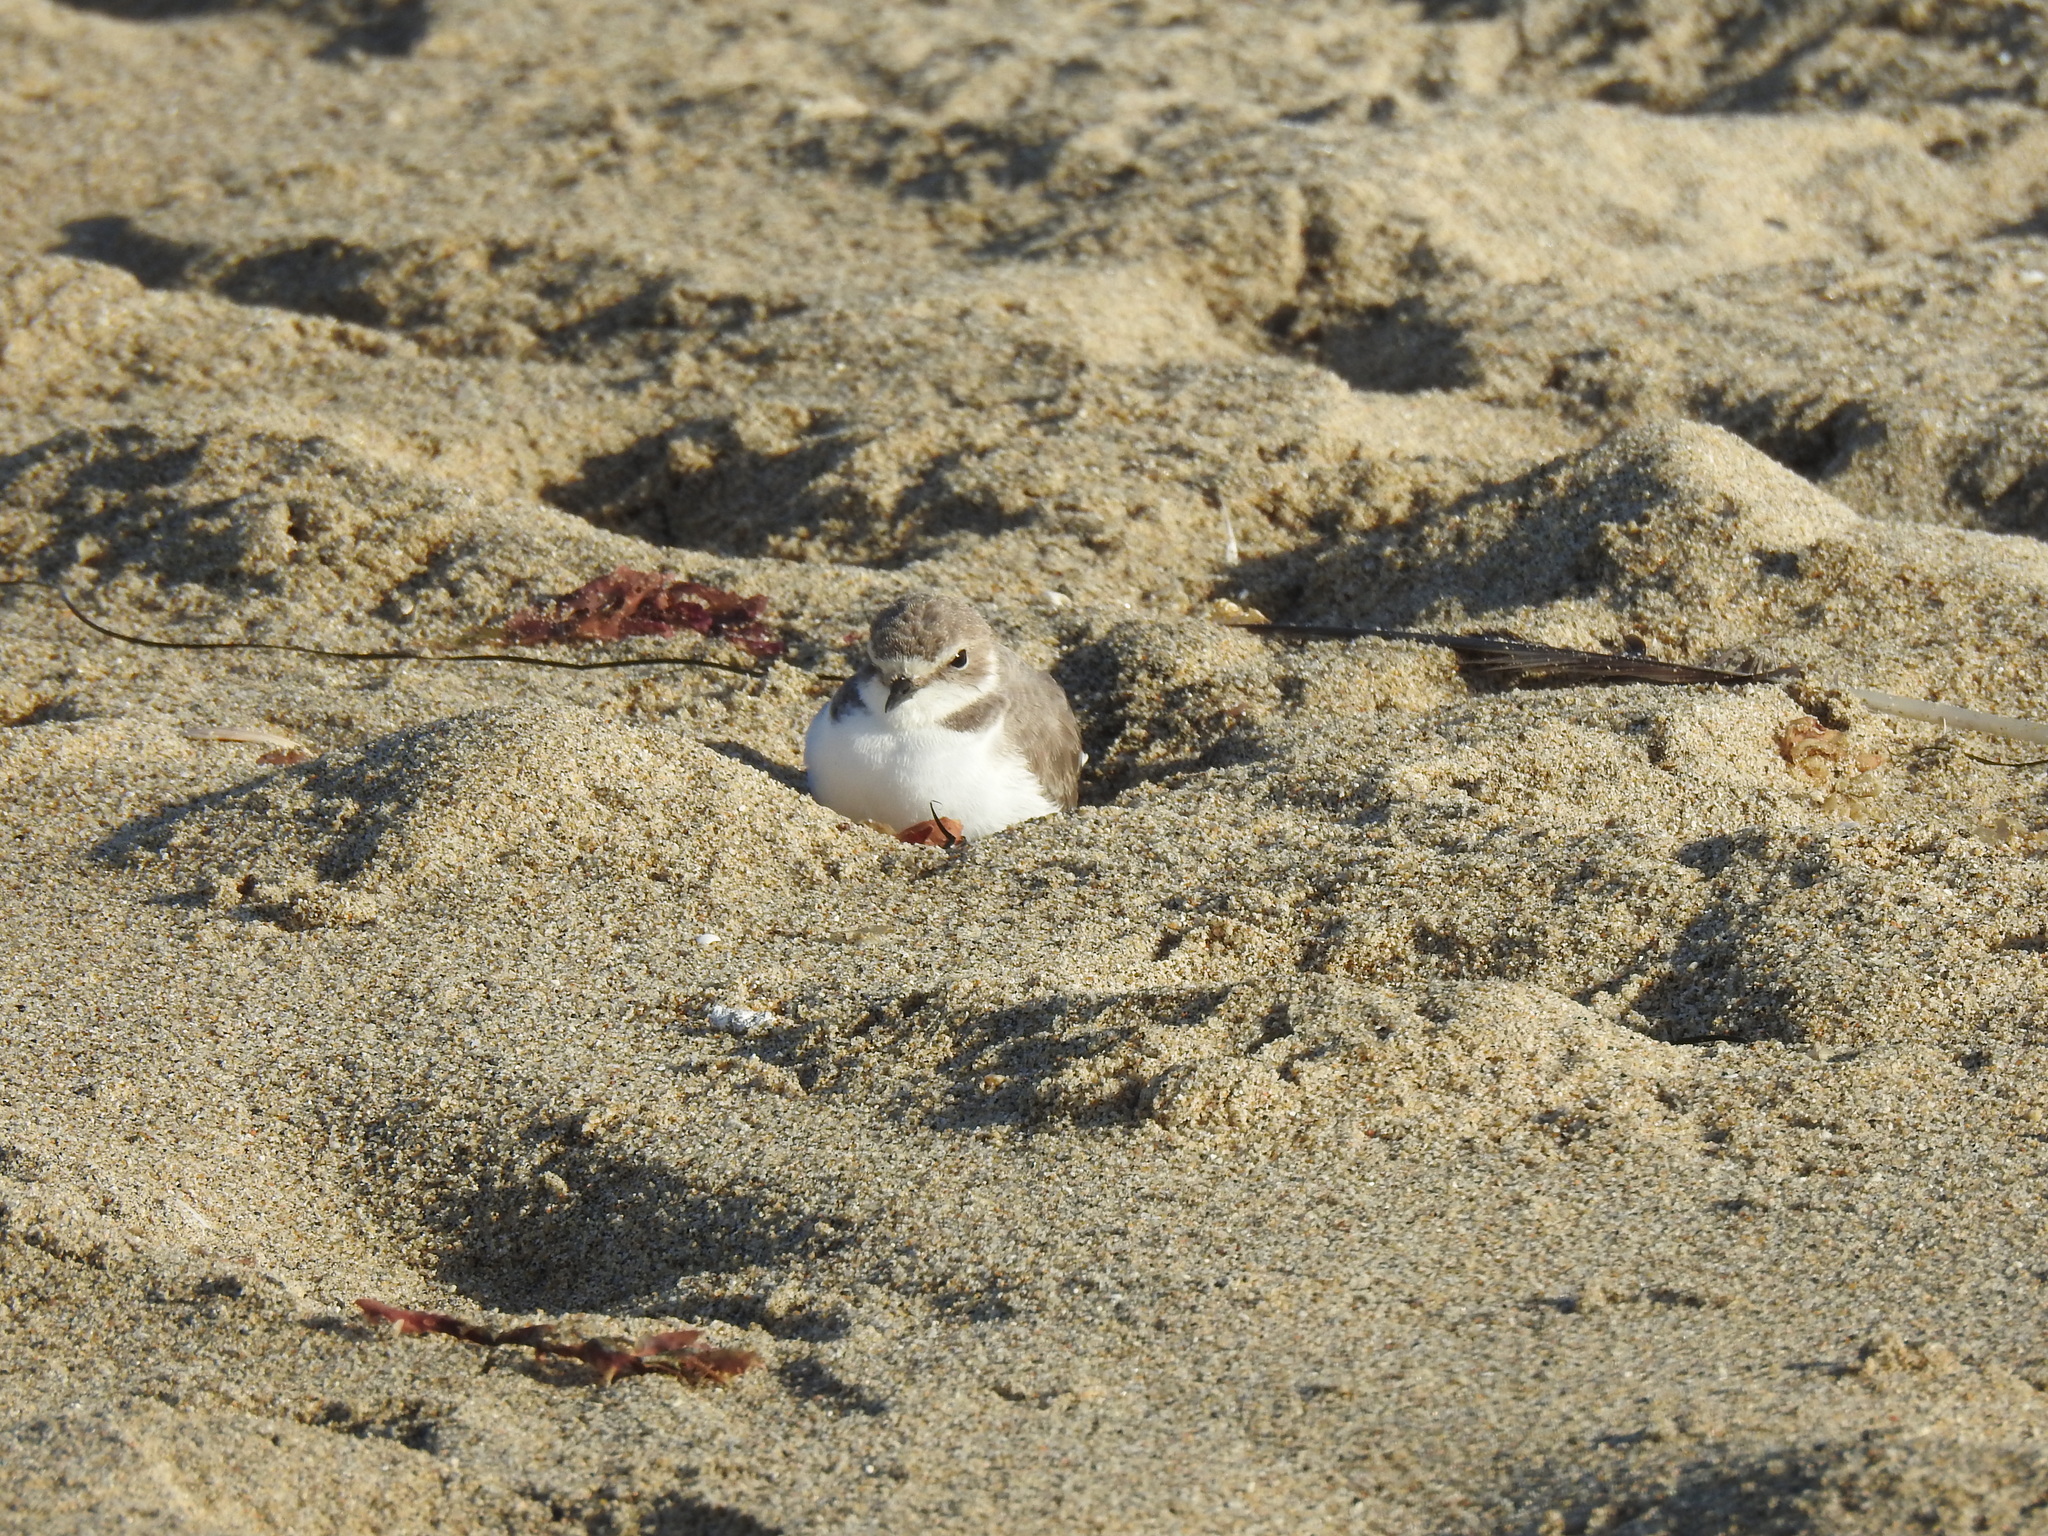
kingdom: Animalia
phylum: Chordata
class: Aves
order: Charadriiformes
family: Charadriidae
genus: Anarhynchus
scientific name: Anarhynchus
